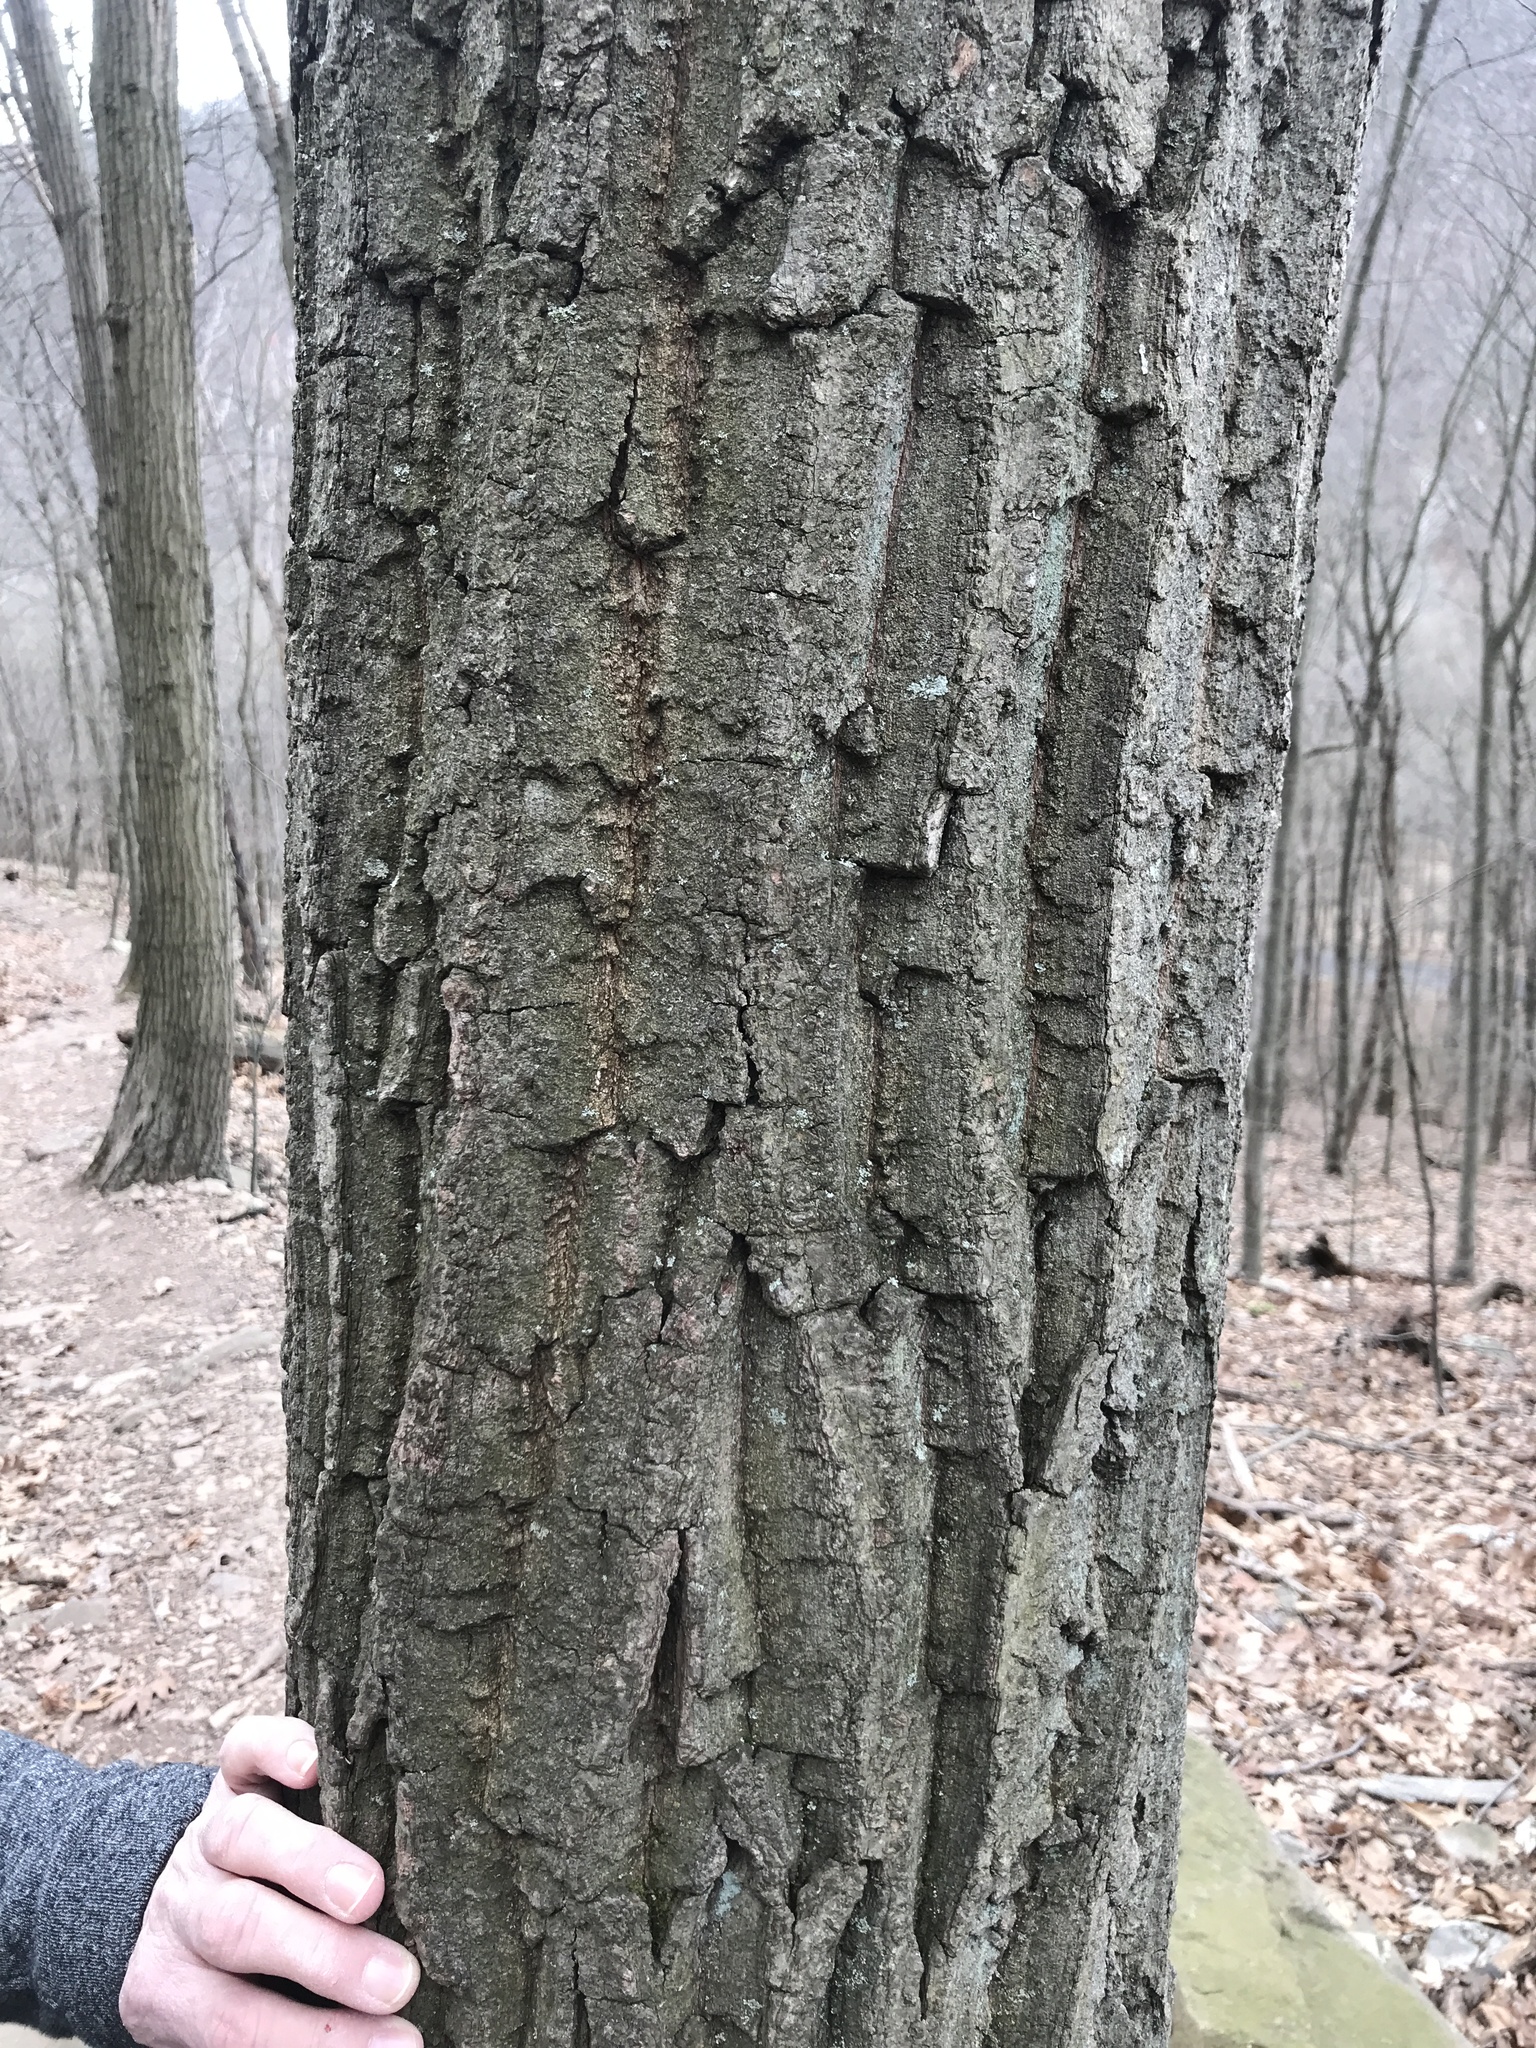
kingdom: Plantae
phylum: Tracheophyta
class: Magnoliopsida
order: Fagales
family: Fagaceae
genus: Quercus
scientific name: Quercus montana
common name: Chestnut oak
